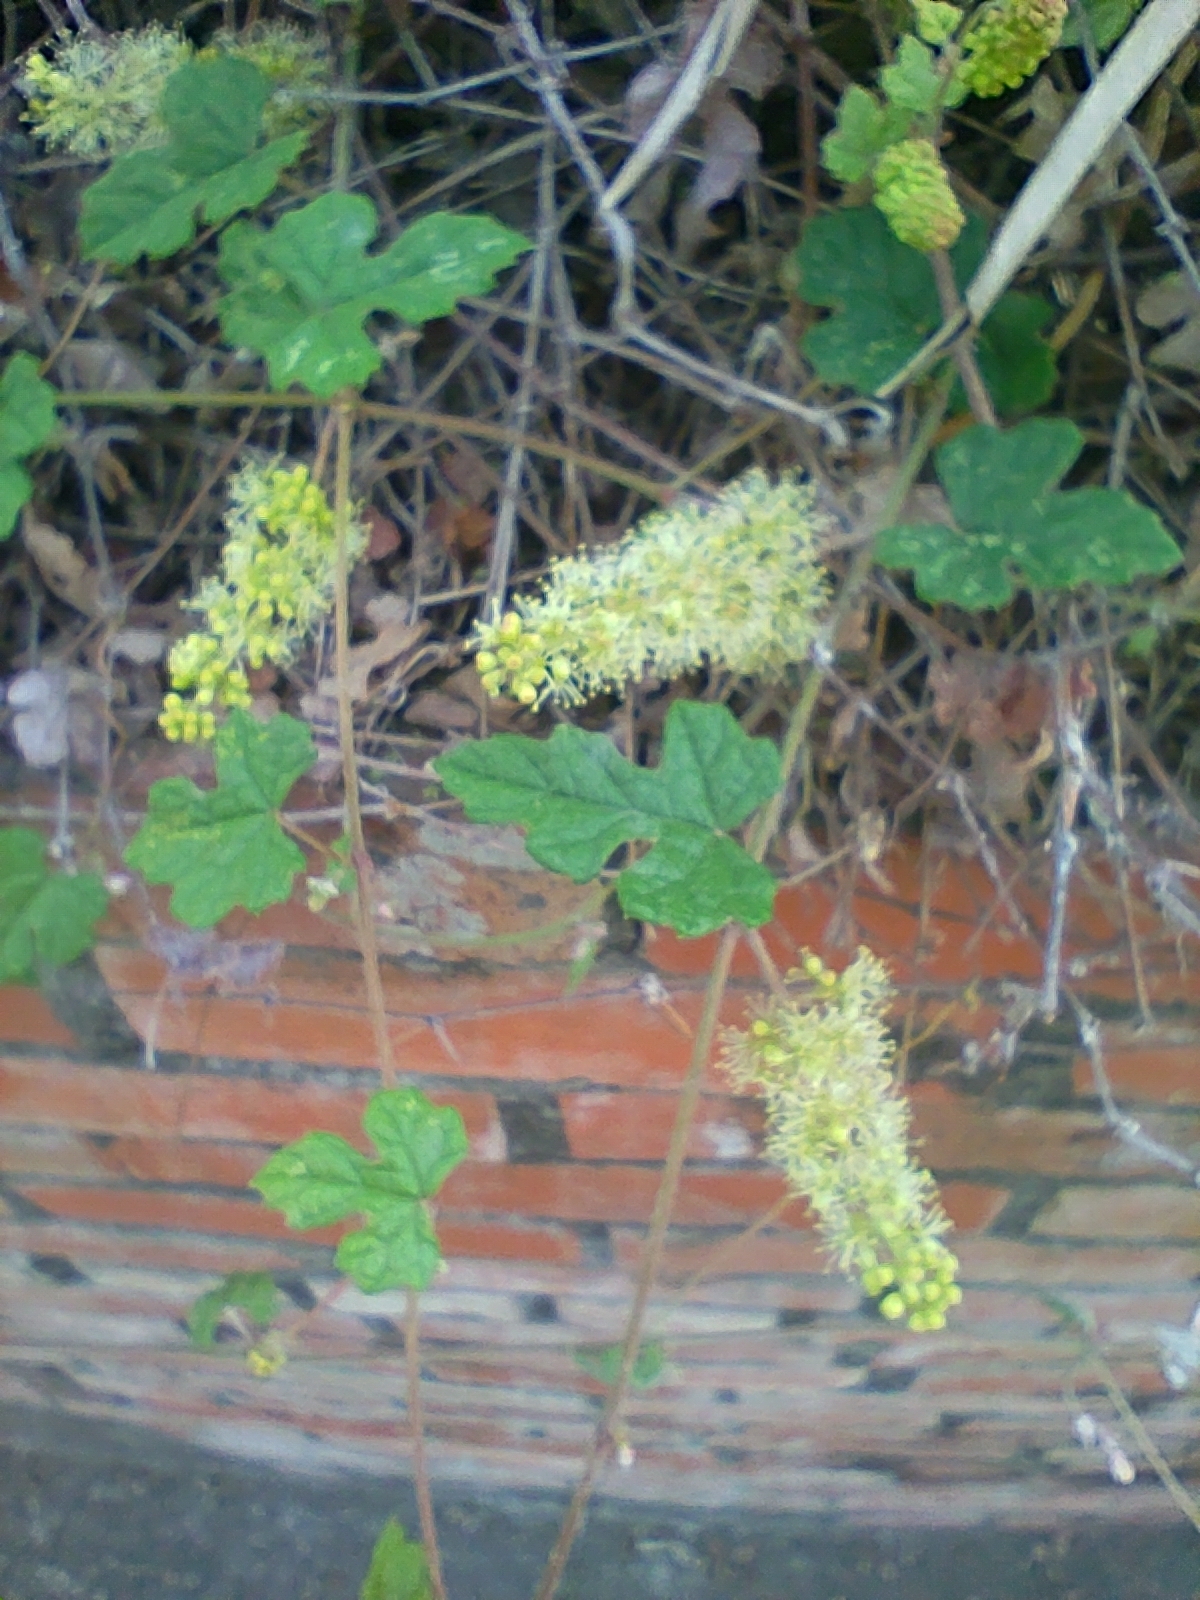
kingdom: Plantae
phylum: Tracheophyta
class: Magnoliopsida
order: Vitales
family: Vitaceae
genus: Vitis
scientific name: Vitis ficifolia
